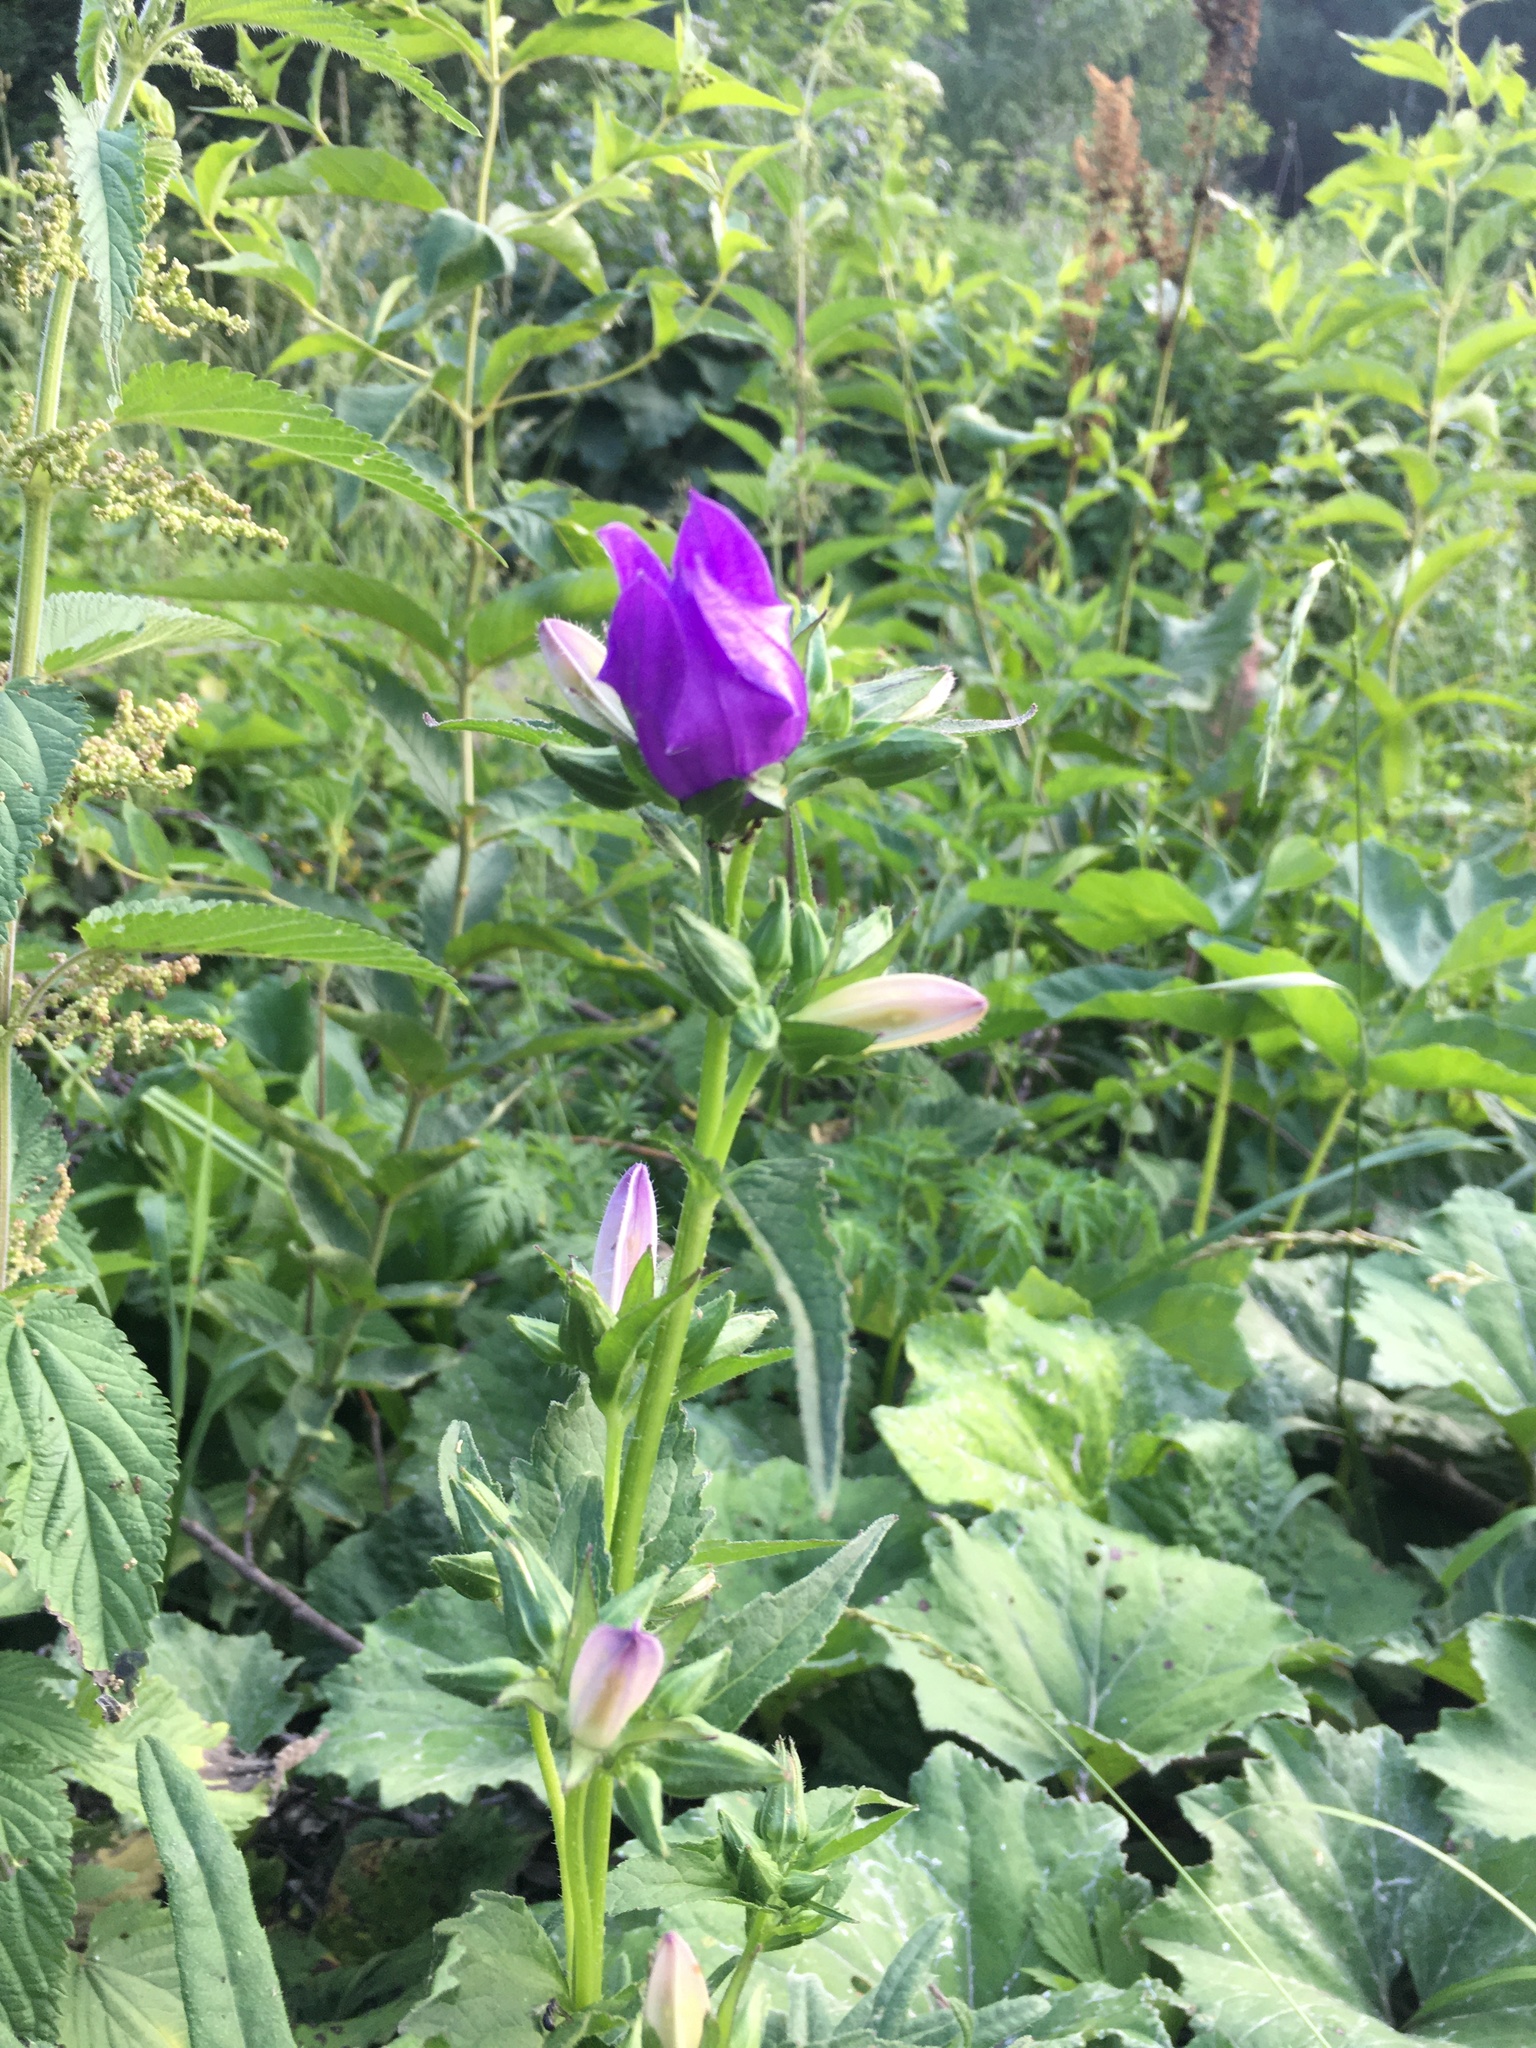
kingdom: Plantae
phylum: Tracheophyta
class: Magnoliopsida
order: Asterales
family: Campanulaceae
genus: Campanula
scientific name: Campanula trachelium
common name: Nettle-leaved bellflower
